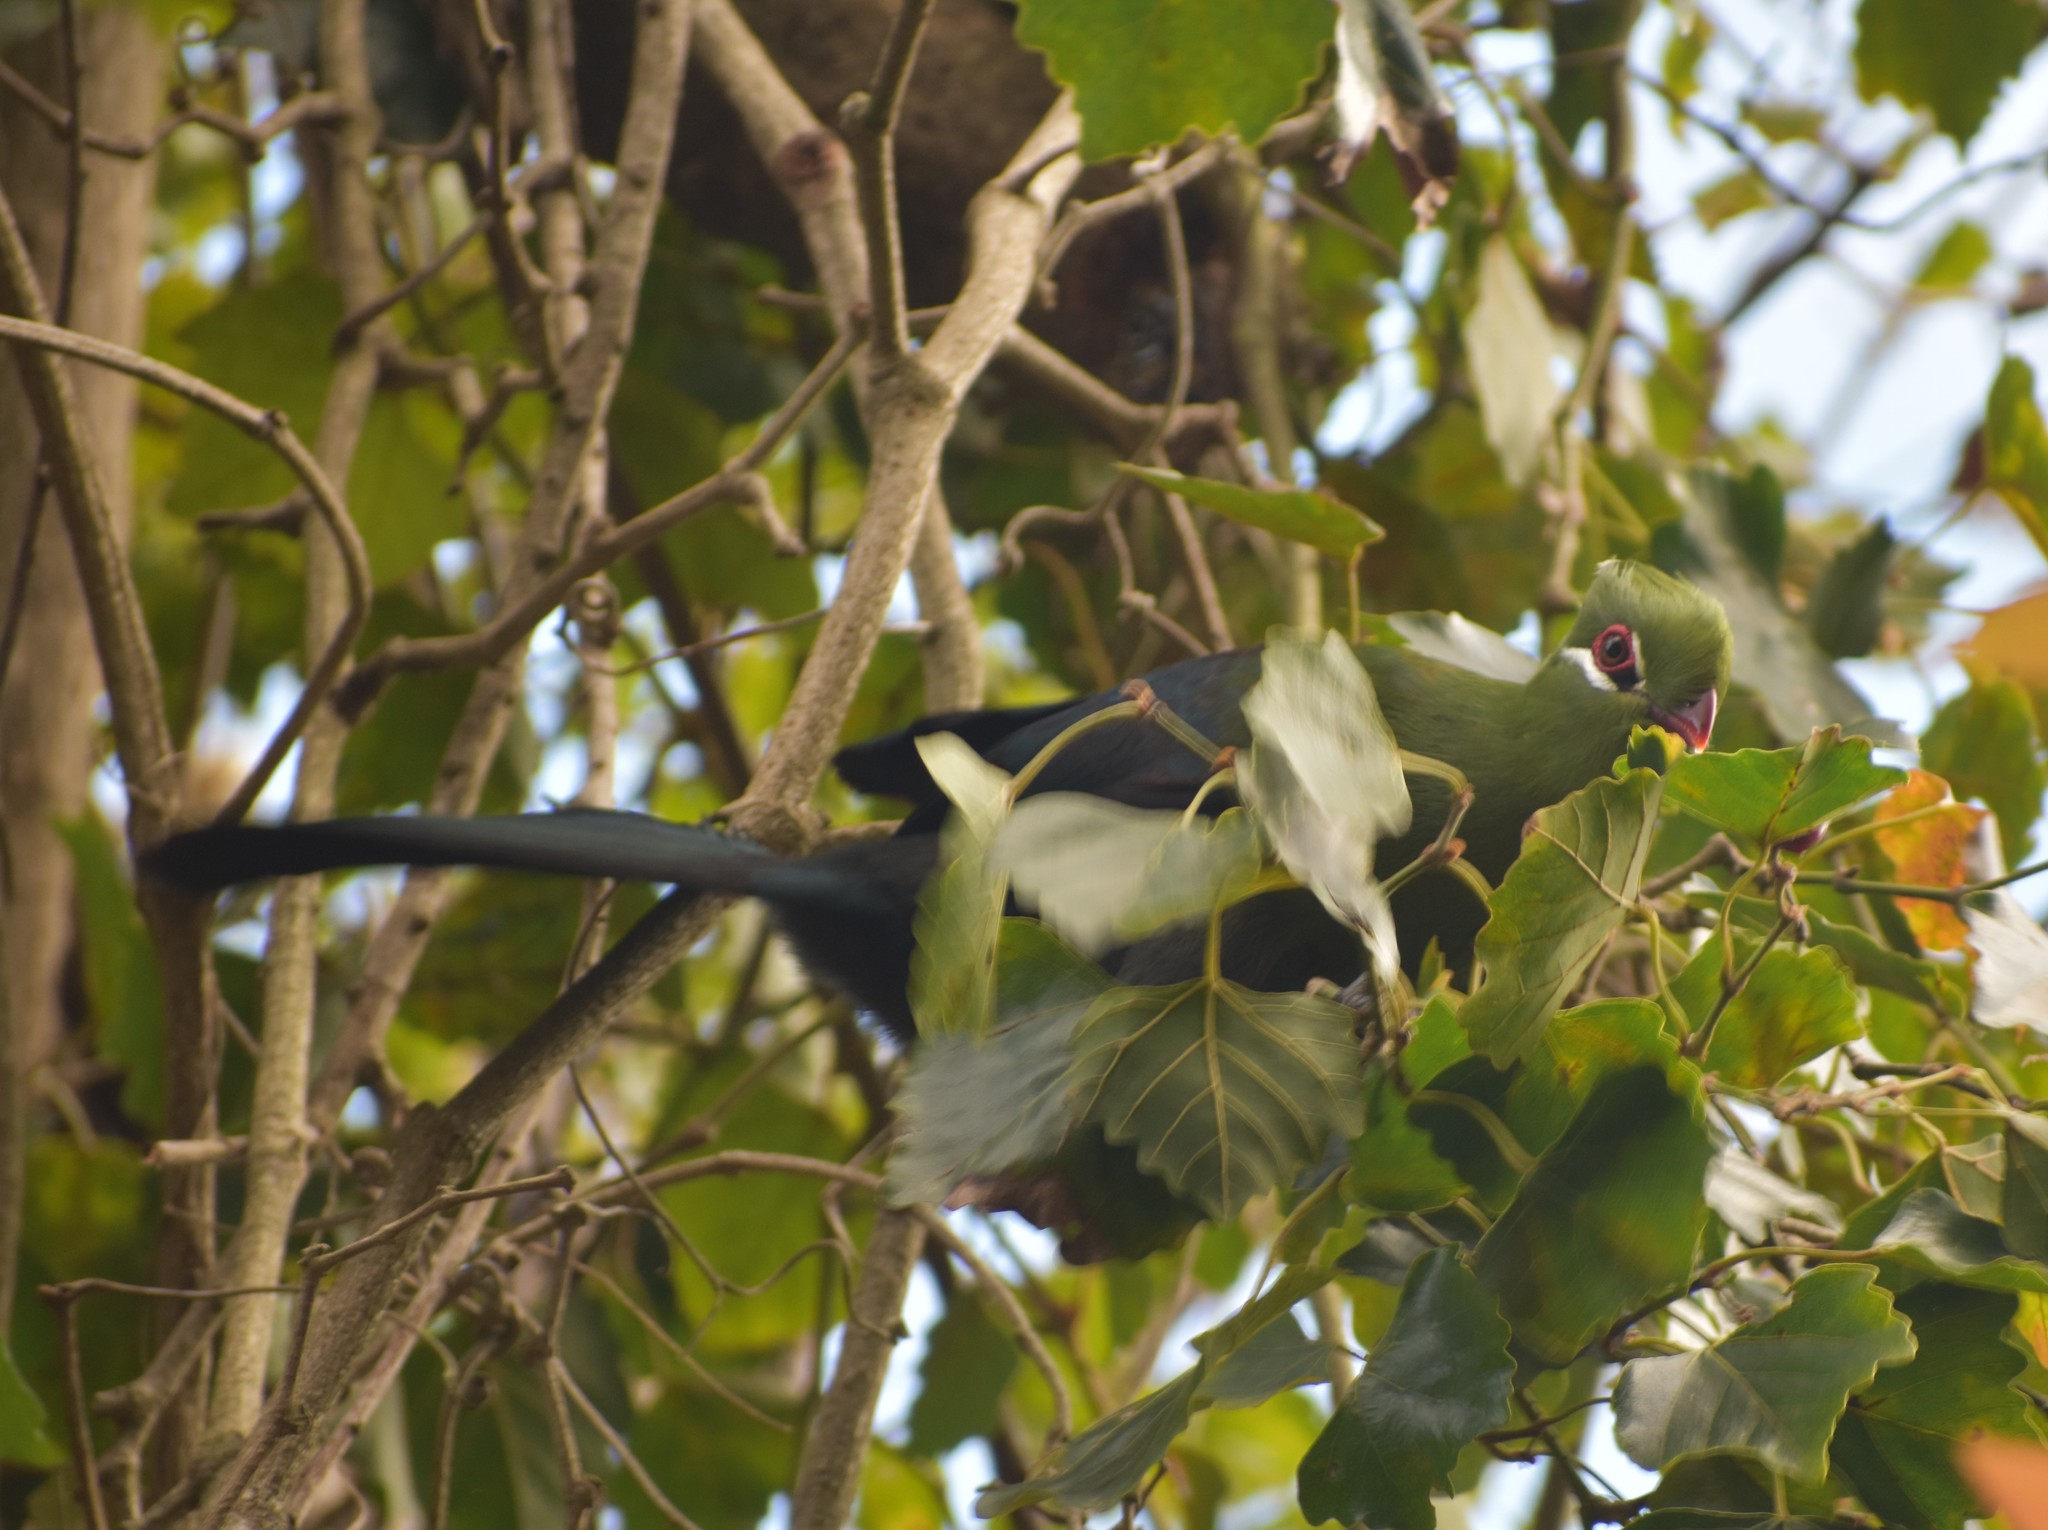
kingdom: Animalia
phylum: Chordata
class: Aves
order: Musophagiformes
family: Musophagidae
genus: Tauraco
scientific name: Tauraco corythaix
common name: Knysna turaco
